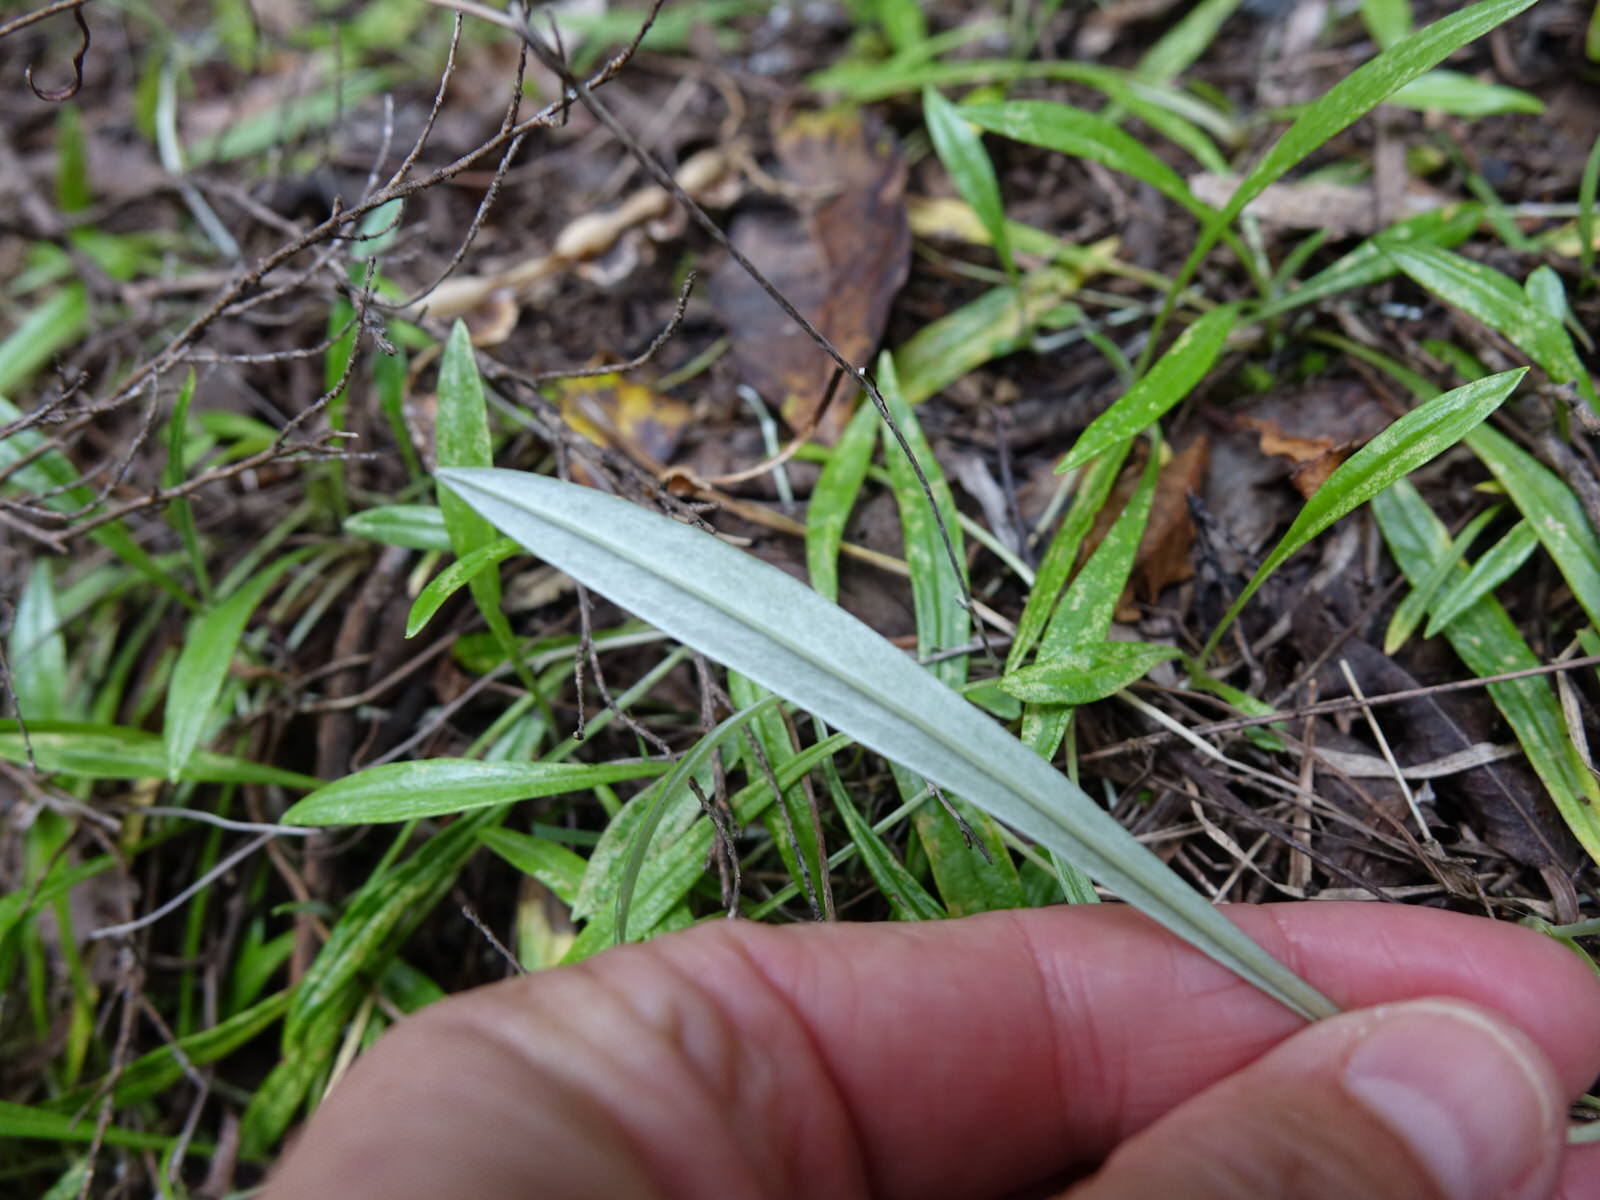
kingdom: Plantae
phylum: Tracheophyta
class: Magnoliopsida
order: Asterales
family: Asteraceae
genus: Euchiton
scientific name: Euchiton japonicus
